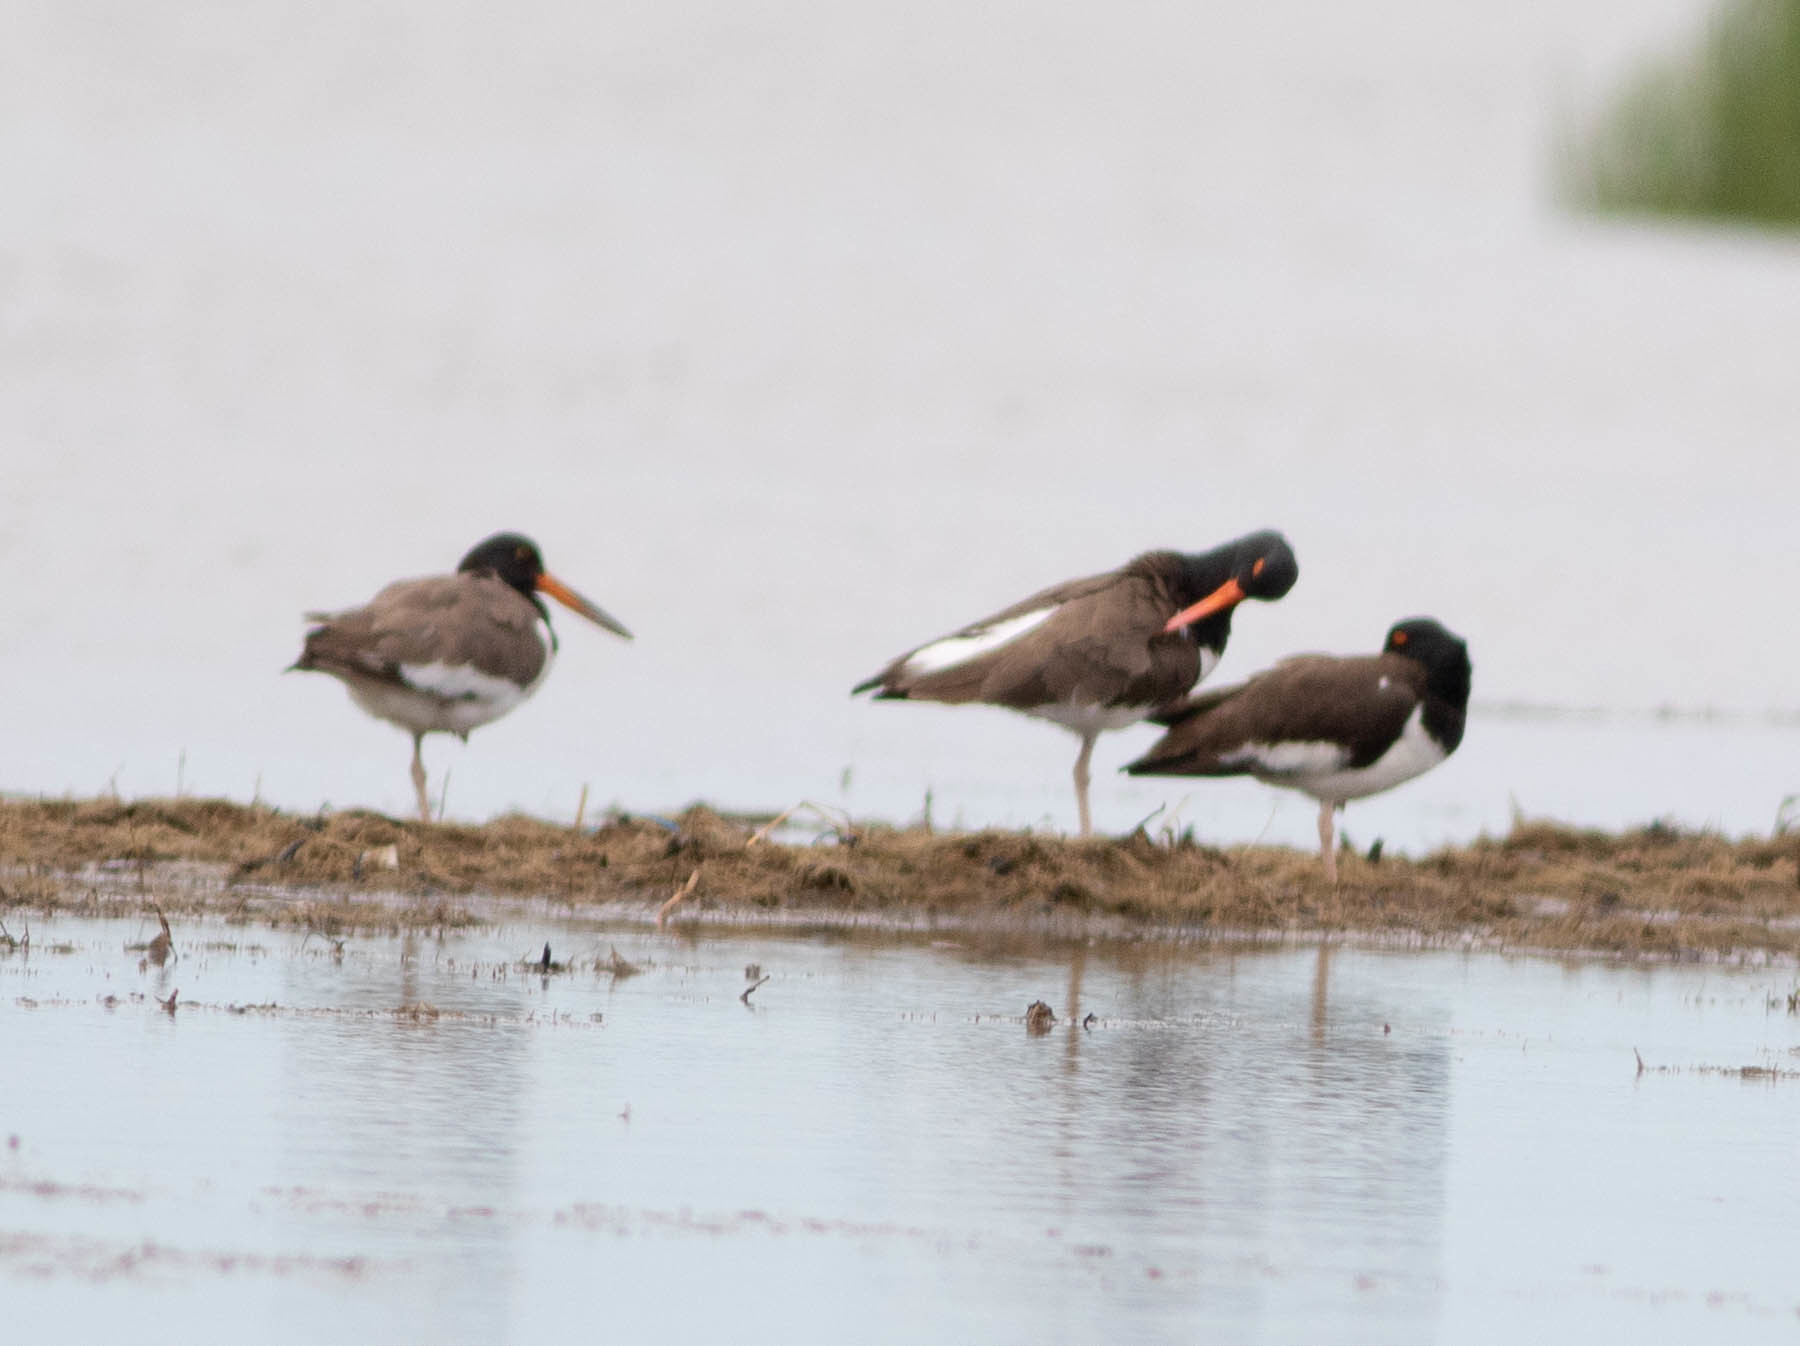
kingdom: Animalia
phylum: Chordata
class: Aves
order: Charadriiformes
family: Haematopodidae
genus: Haematopus
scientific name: Haematopus palliatus
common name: American oystercatcher
